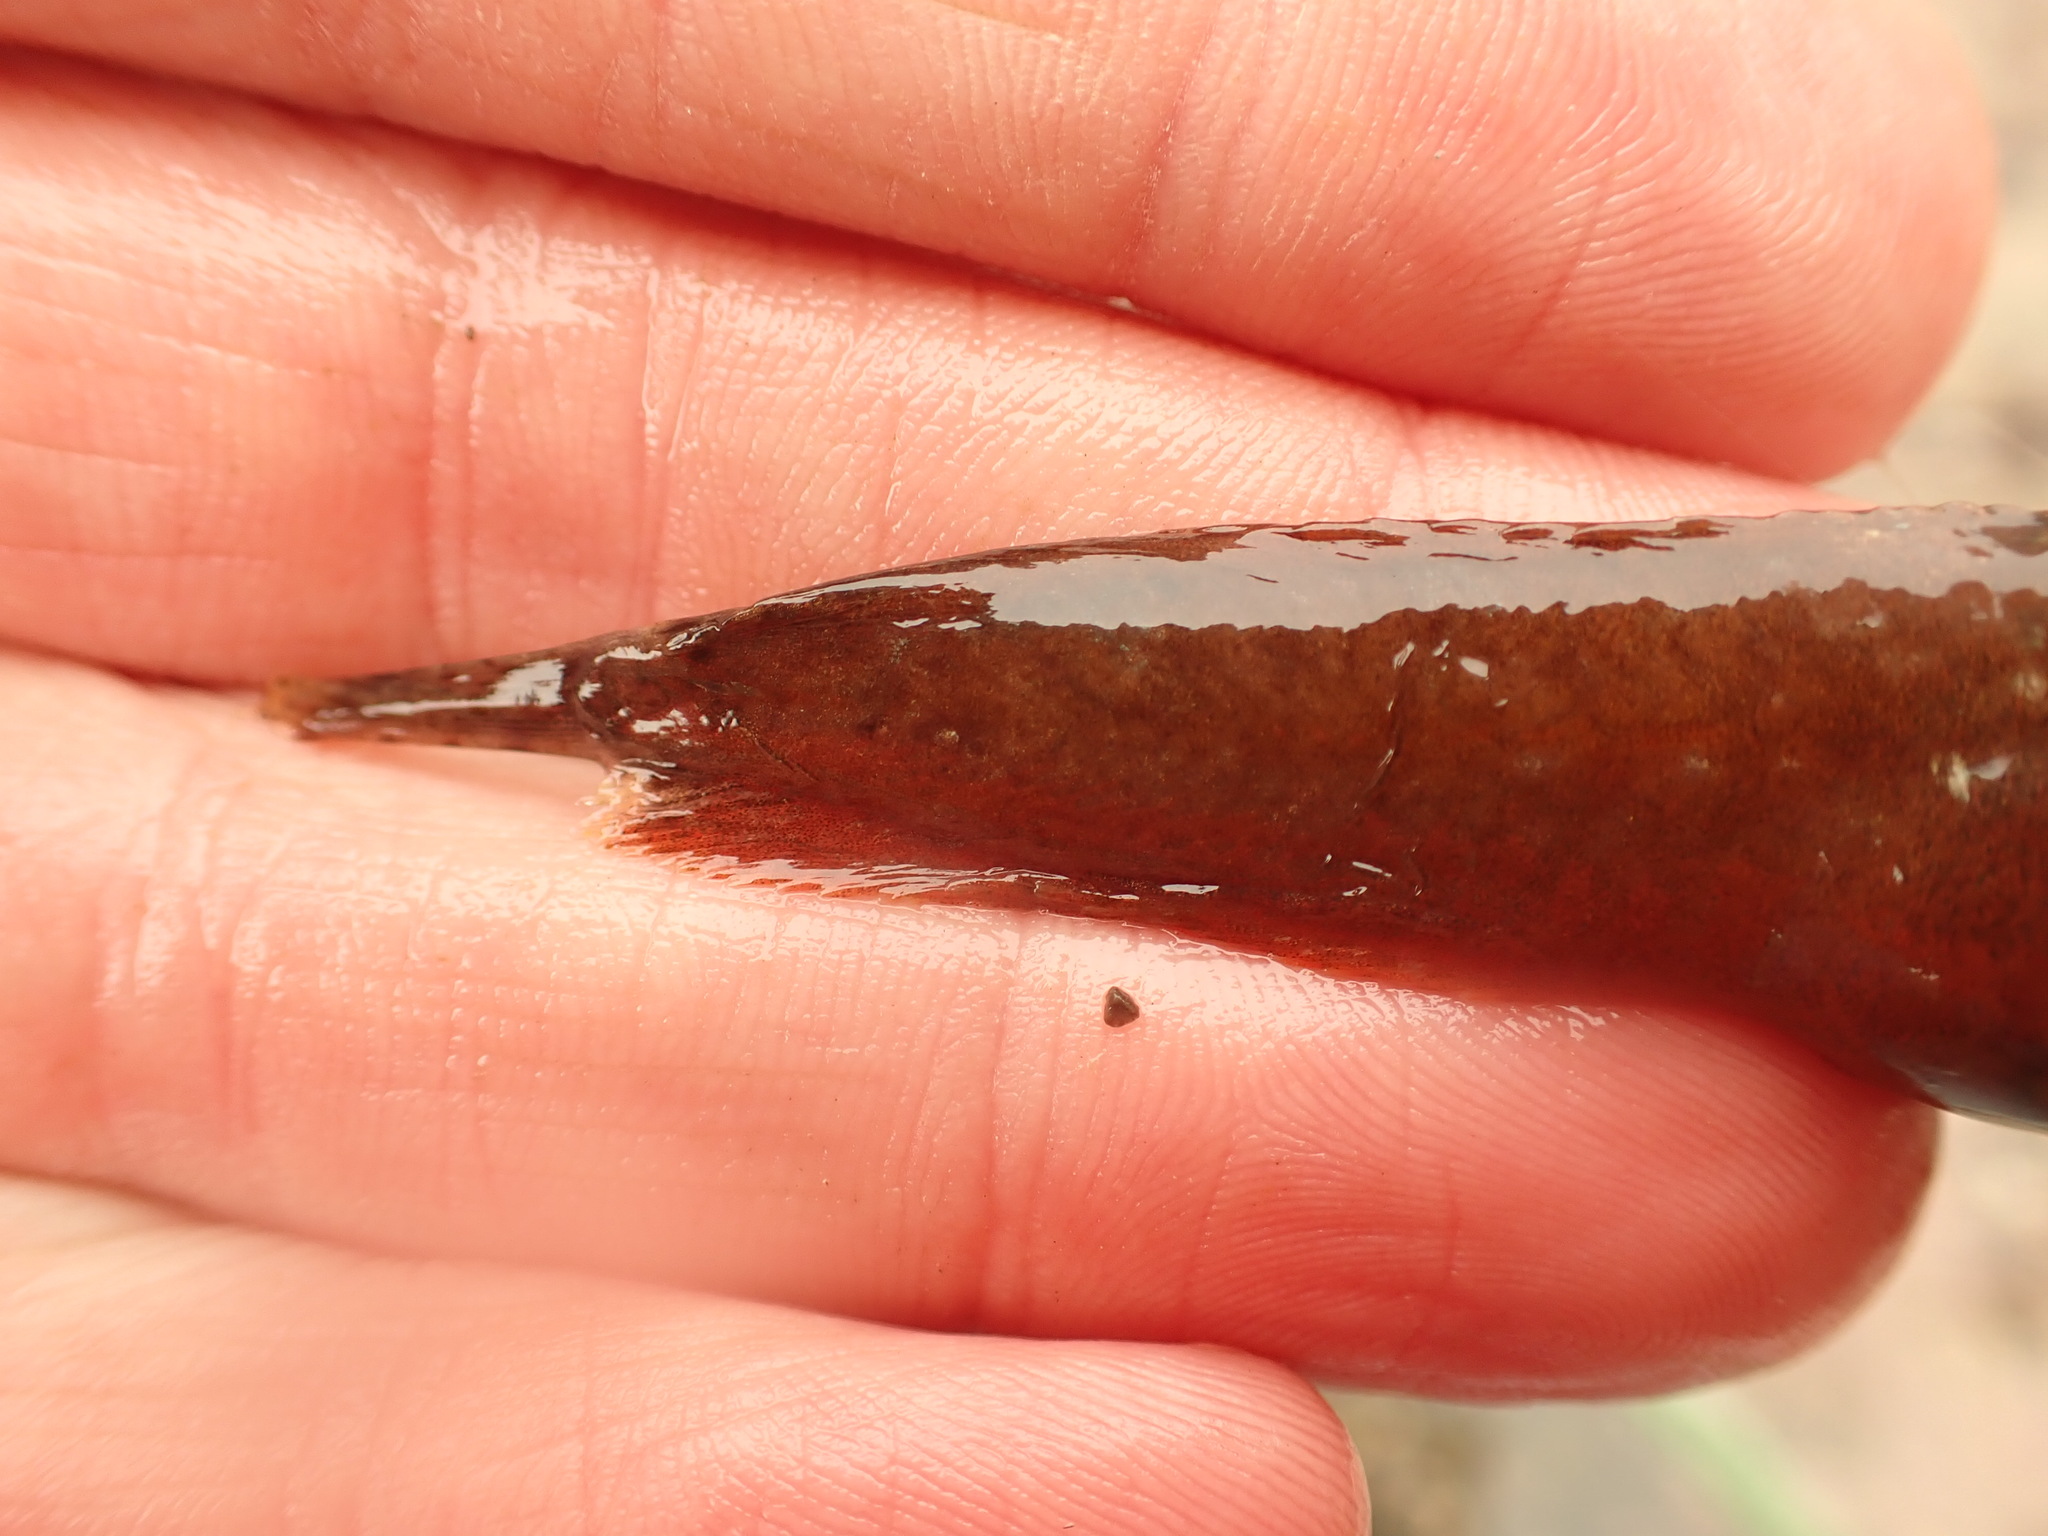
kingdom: Animalia
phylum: Chordata
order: Scorpaeniformes
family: Liparidae
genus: Liparis
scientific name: Liparis atlanticus
